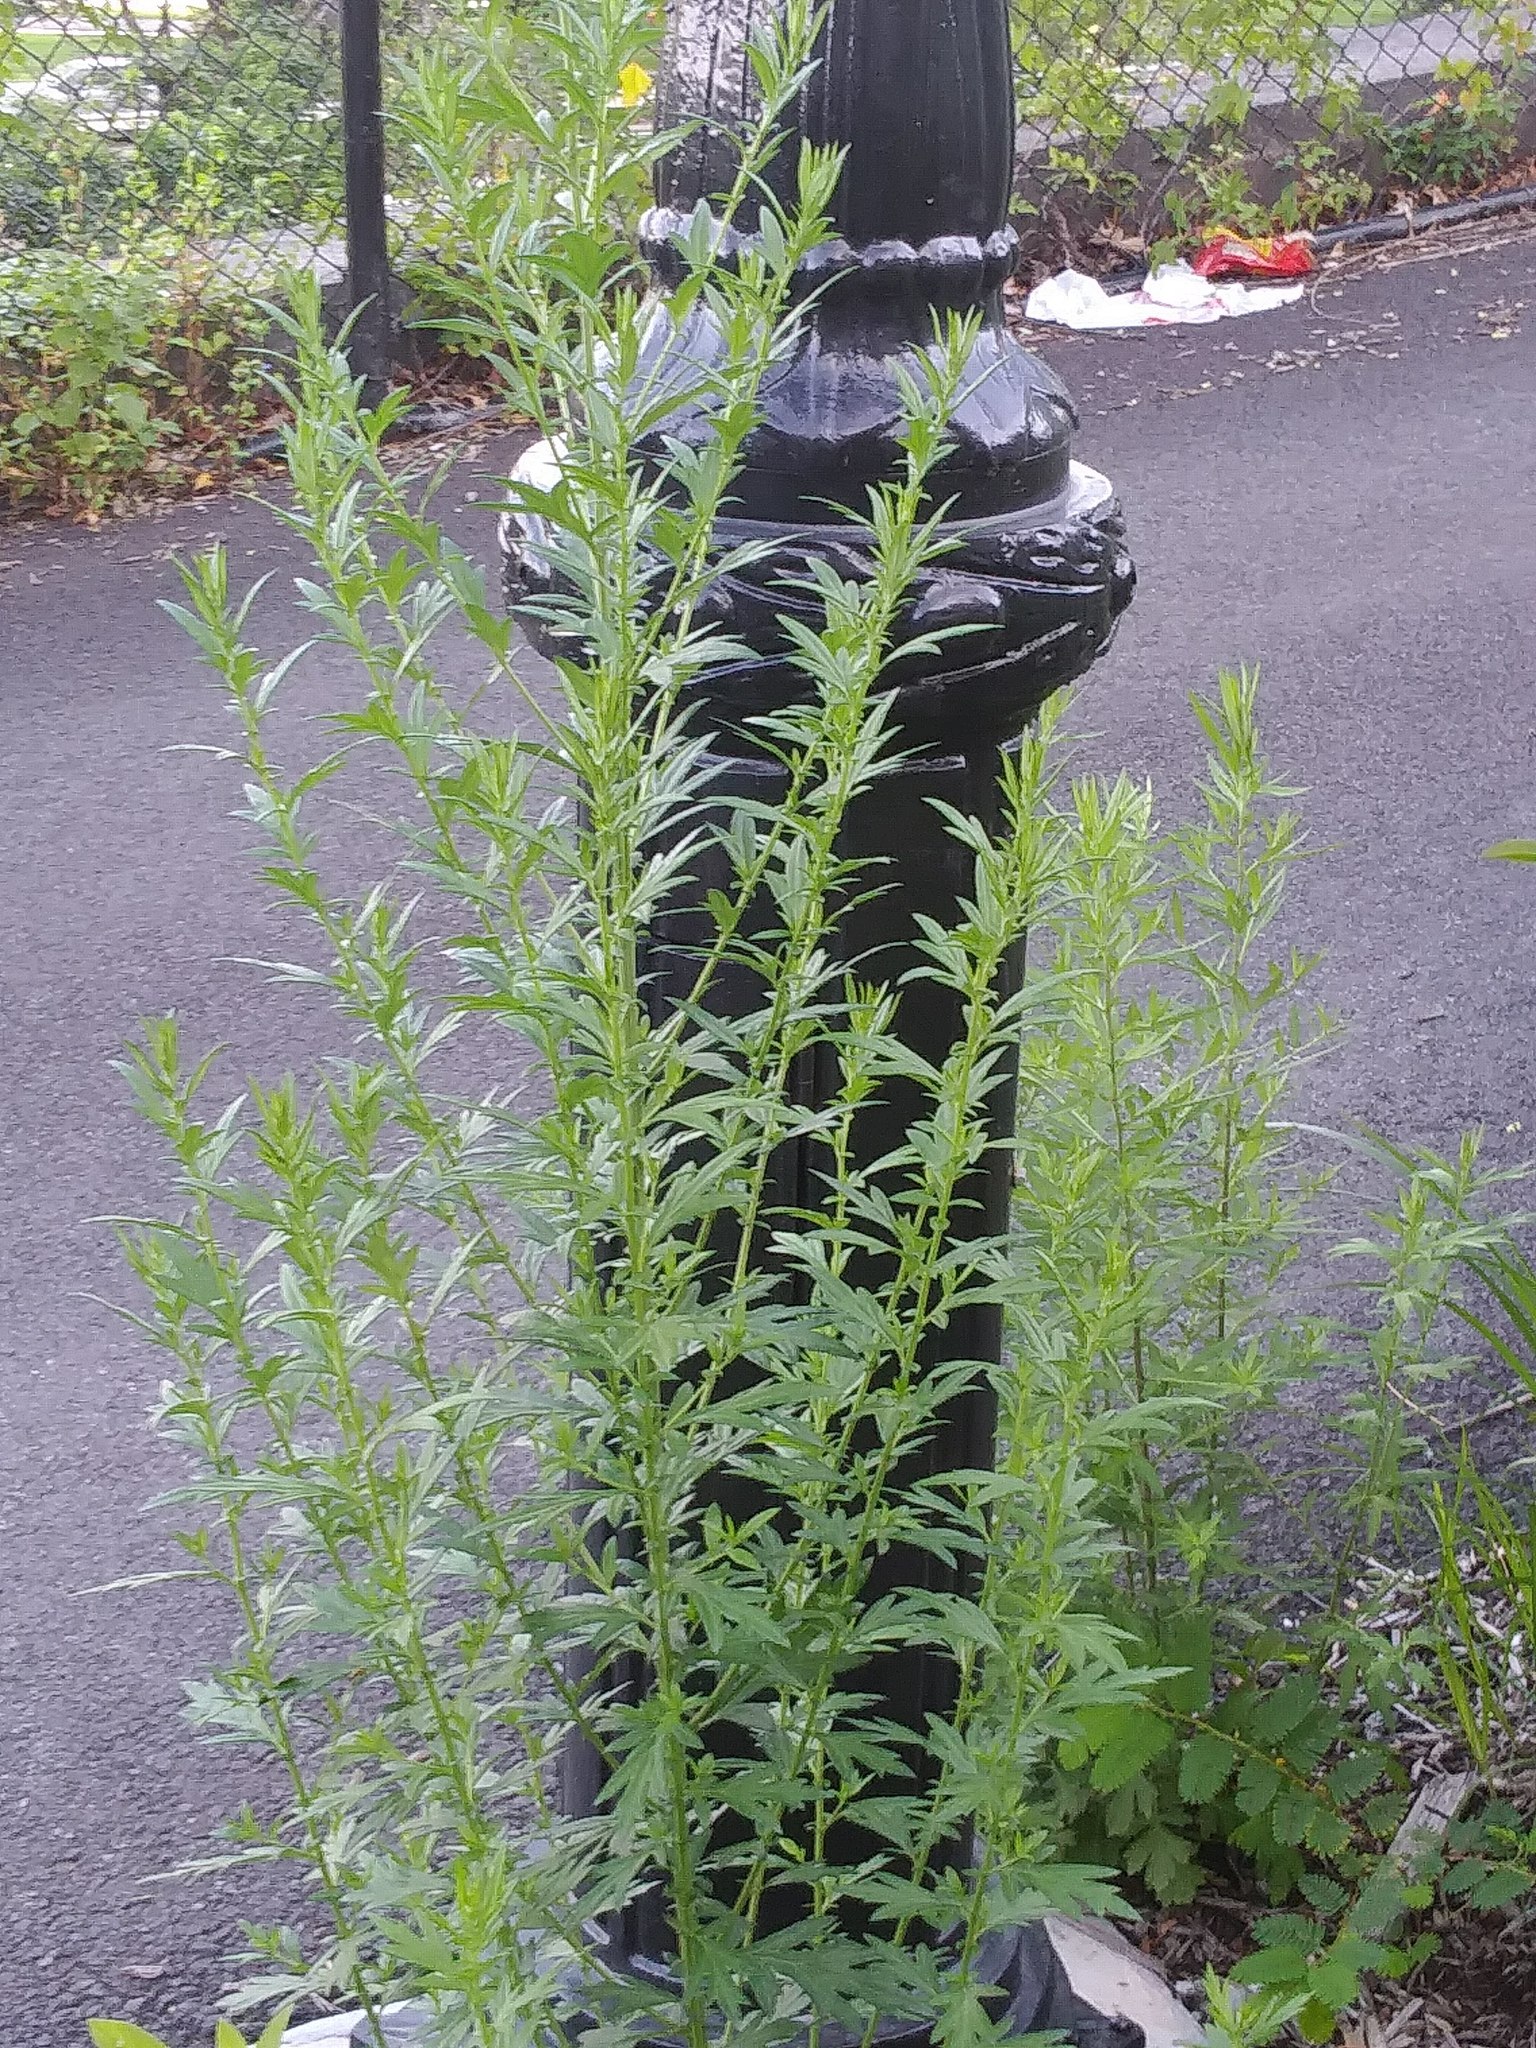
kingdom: Plantae
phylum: Tracheophyta
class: Magnoliopsida
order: Asterales
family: Asteraceae
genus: Artemisia
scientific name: Artemisia vulgaris
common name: Mugwort
